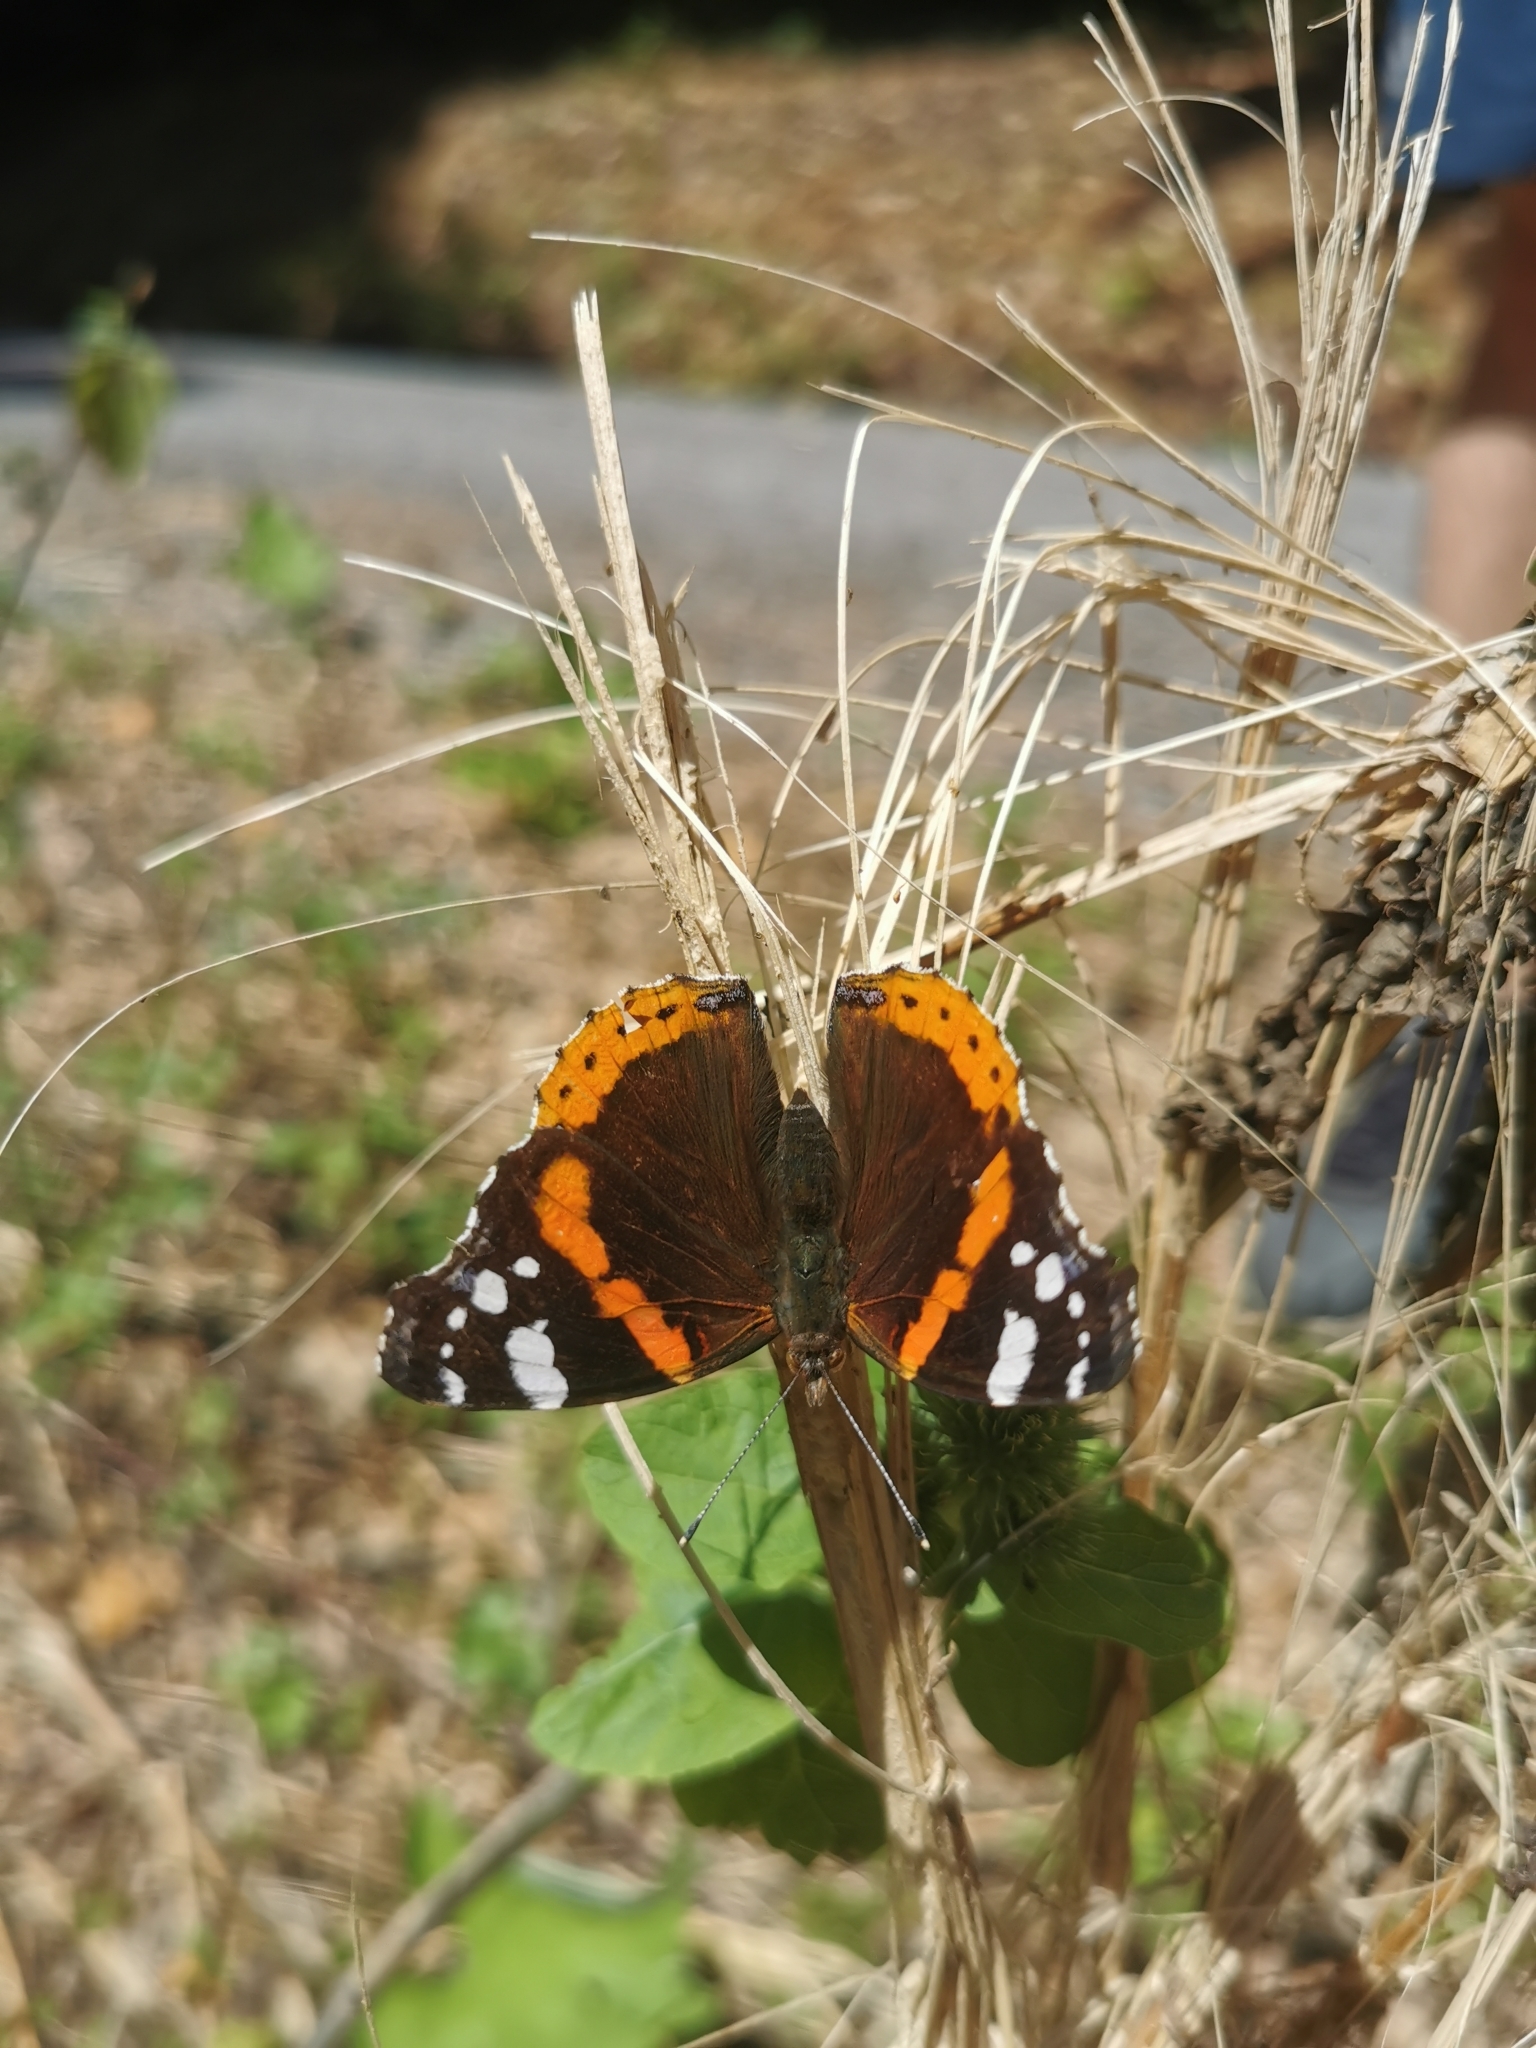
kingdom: Animalia
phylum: Arthropoda
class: Insecta
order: Lepidoptera
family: Nymphalidae
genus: Vanessa
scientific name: Vanessa atalanta
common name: Red admiral
